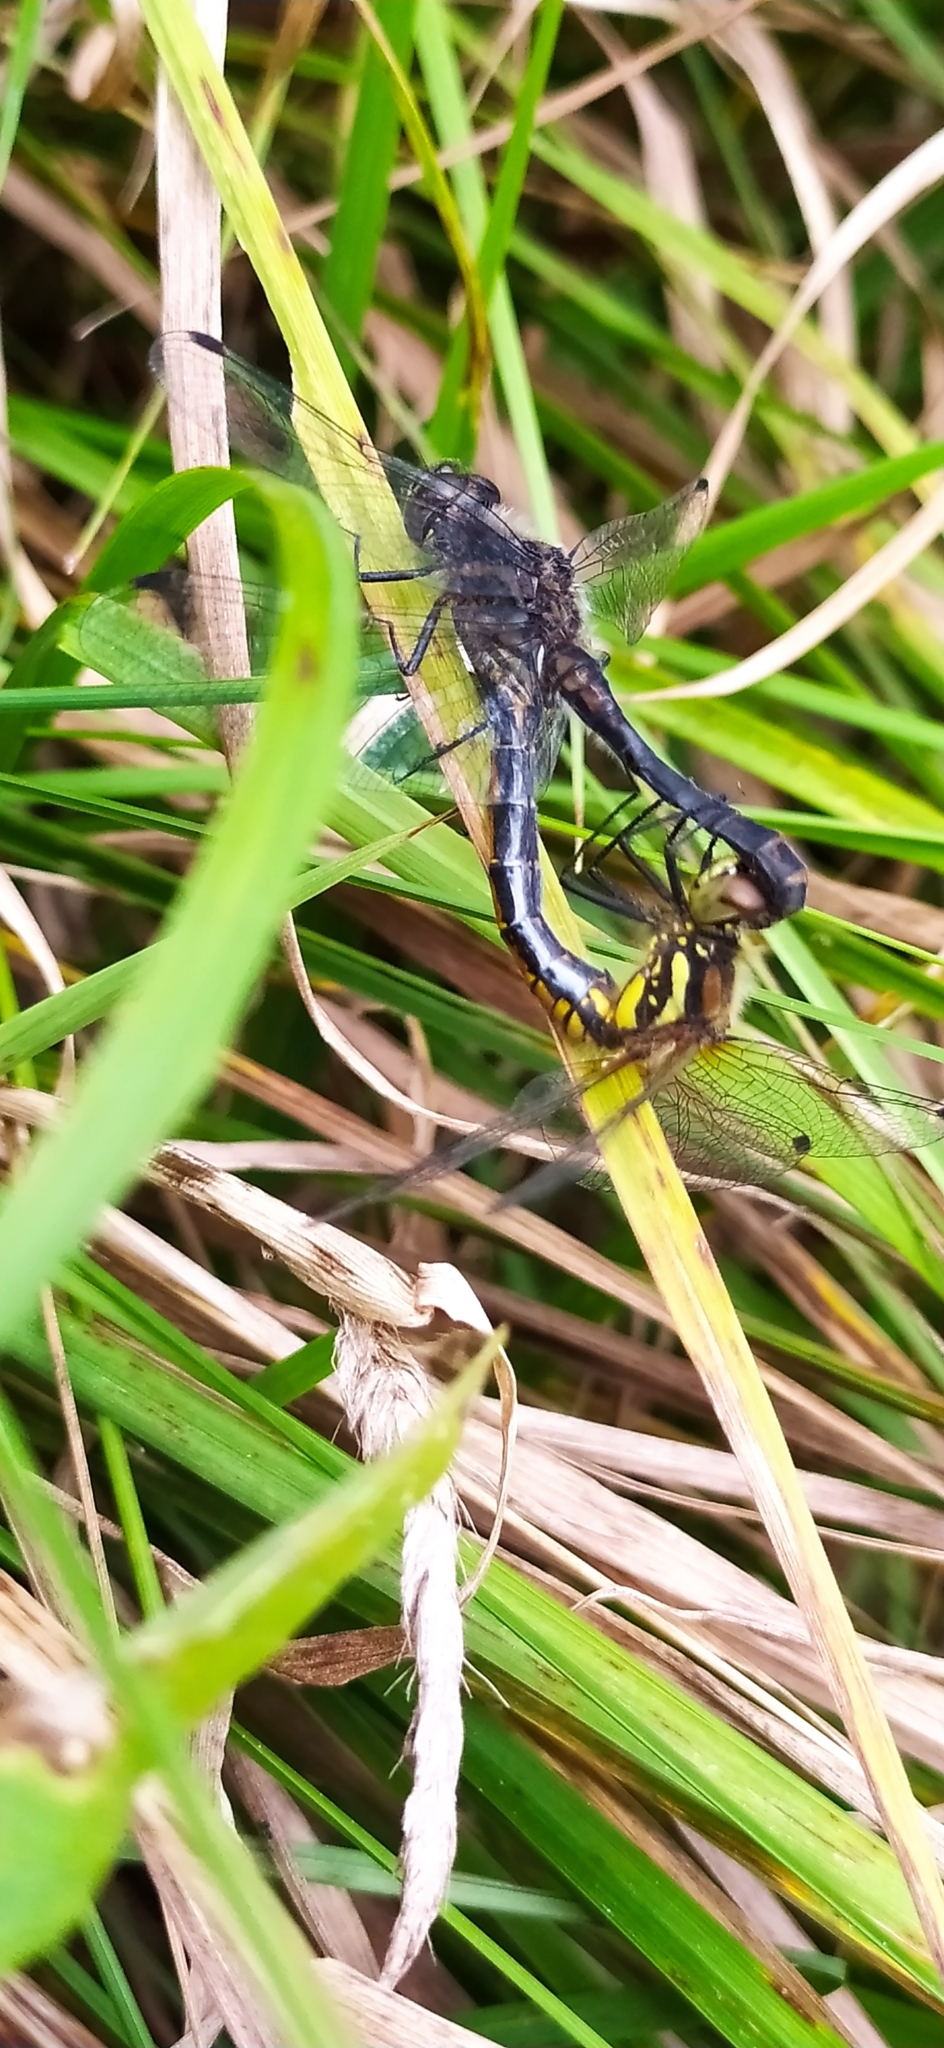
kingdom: Animalia
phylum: Arthropoda
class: Insecta
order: Odonata
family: Libellulidae
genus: Sympetrum
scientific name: Sympetrum danae
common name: Black darter
